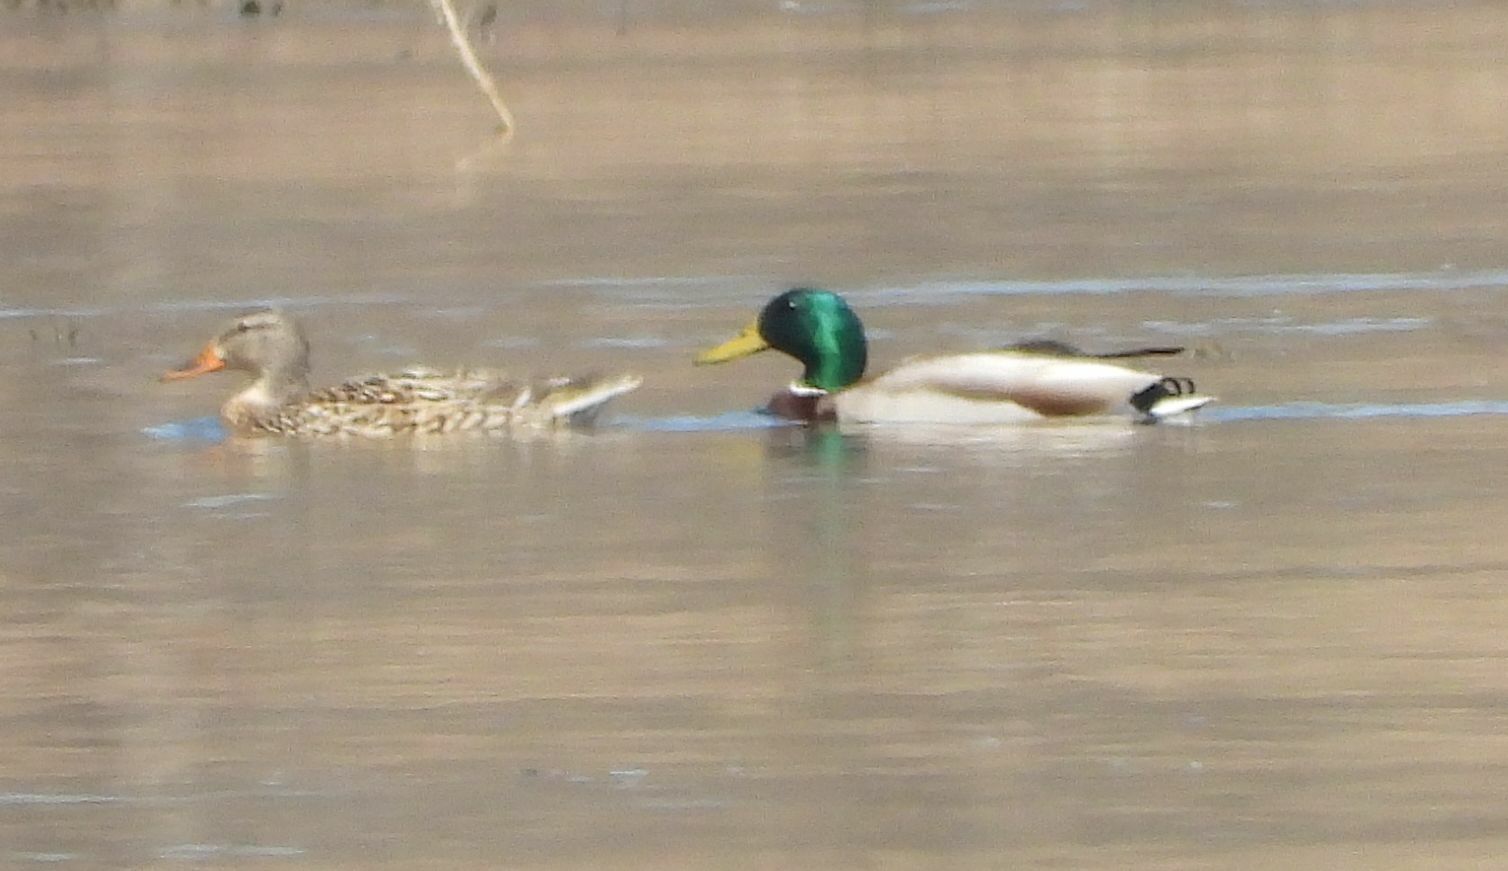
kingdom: Animalia
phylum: Chordata
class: Aves
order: Anseriformes
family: Anatidae
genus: Anas
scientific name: Anas platyrhynchos
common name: Mallard
